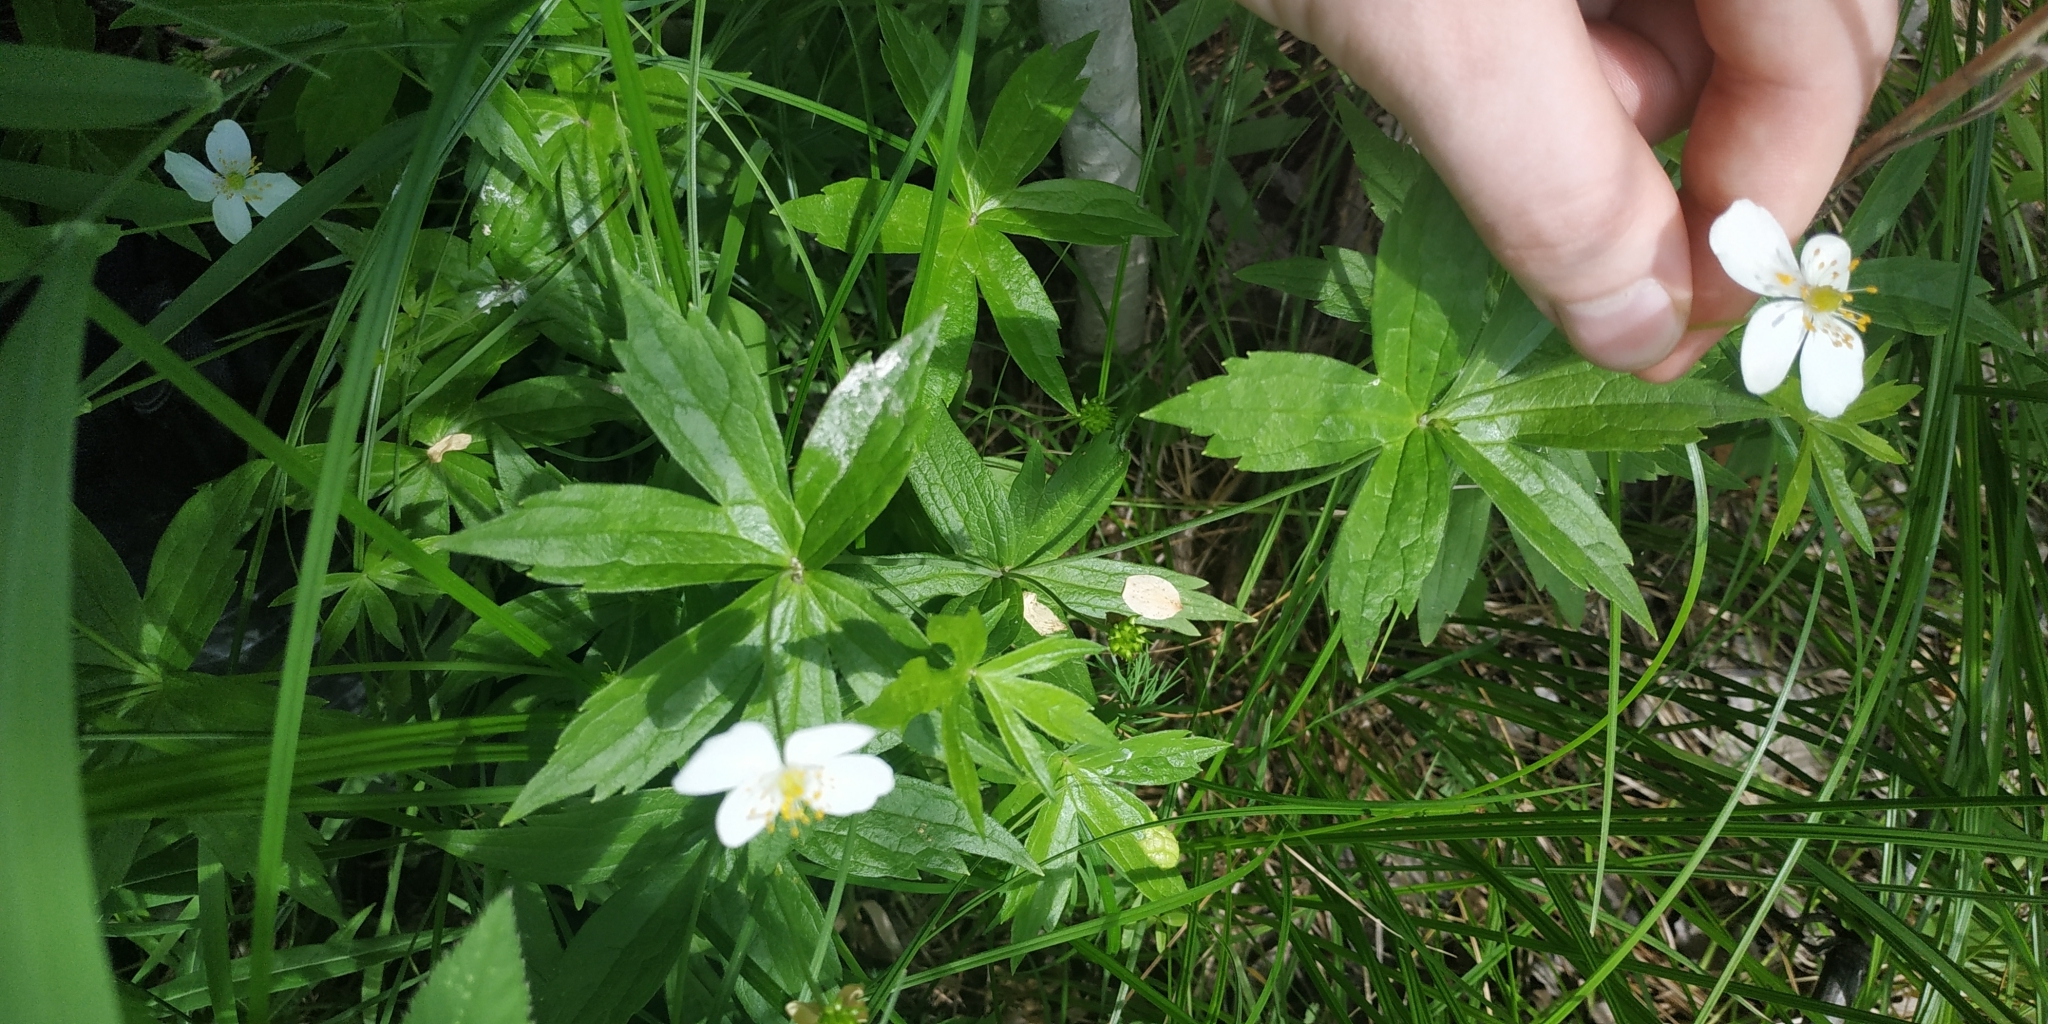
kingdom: Plantae
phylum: Tracheophyta
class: Magnoliopsida
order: Ranunculales
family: Ranunculaceae
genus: Anemonastrum
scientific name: Anemonastrum dichotomum
